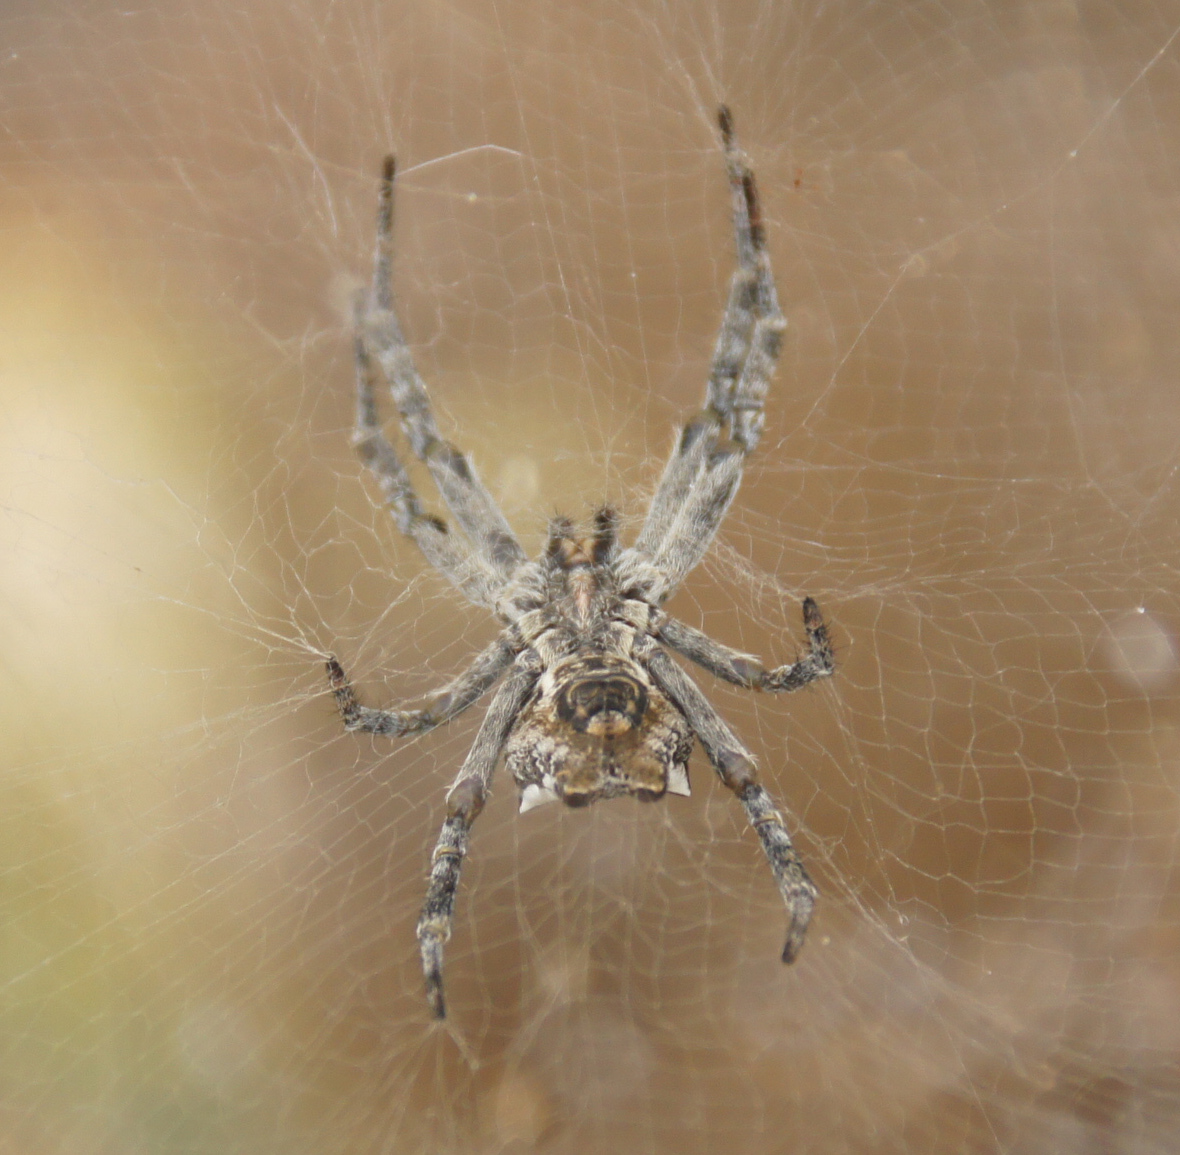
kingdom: Animalia
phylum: Arthropoda
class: Arachnida
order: Araneae
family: Araneidae
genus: Cyrtophora
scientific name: Cyrtophora citricola
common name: Orb weavers
